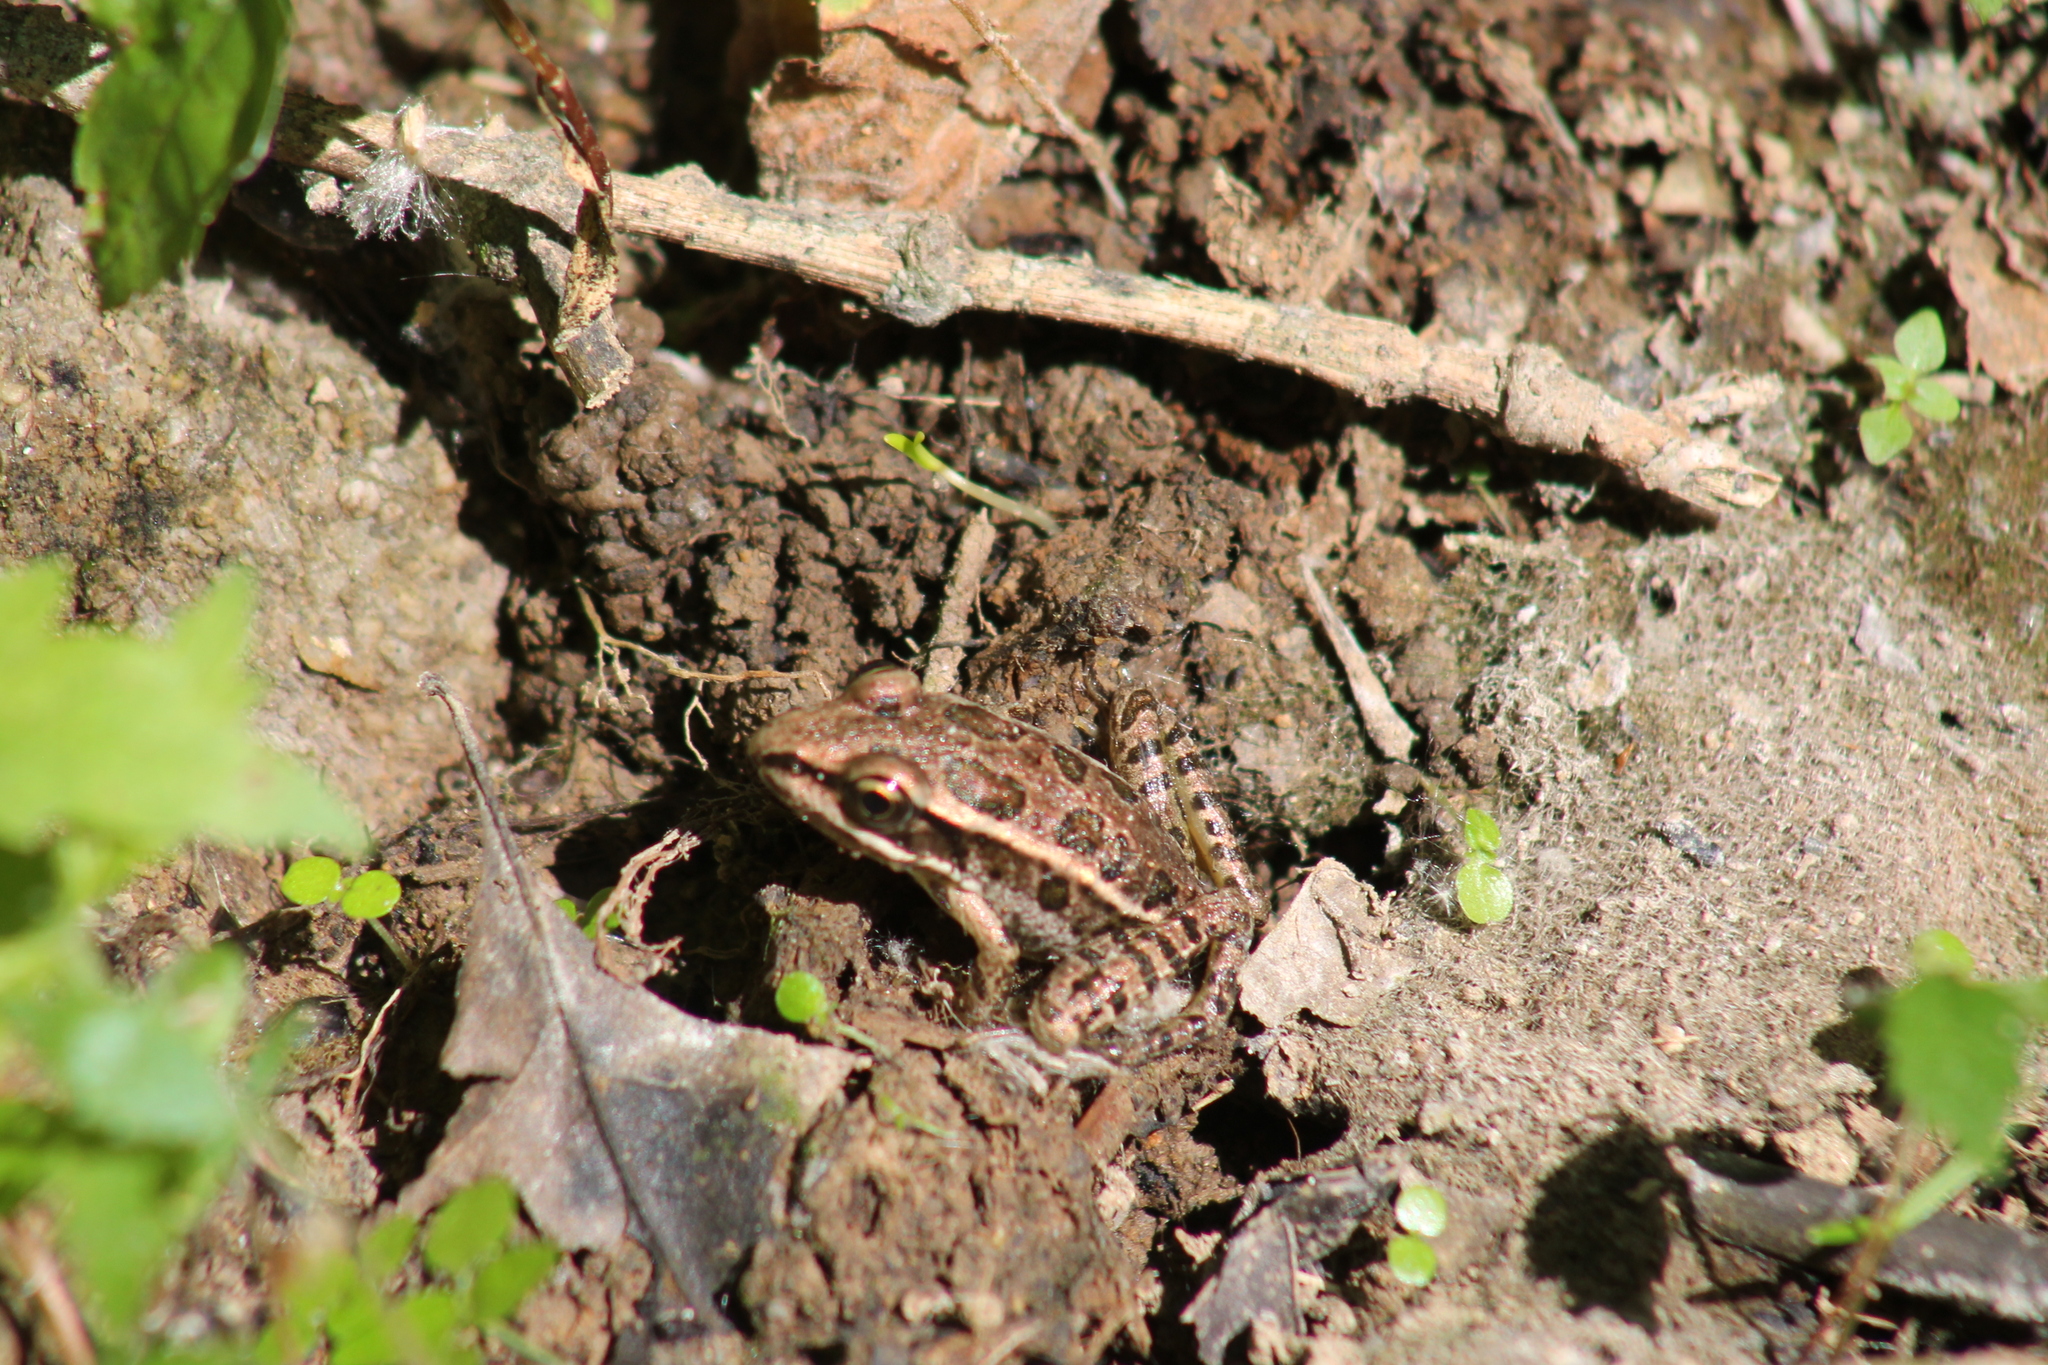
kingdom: Animalia
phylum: Chordata
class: Amphibia
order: Anura
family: Ranidae
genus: Lithobates
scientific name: Lithobates palustris
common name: Pickerel frog
